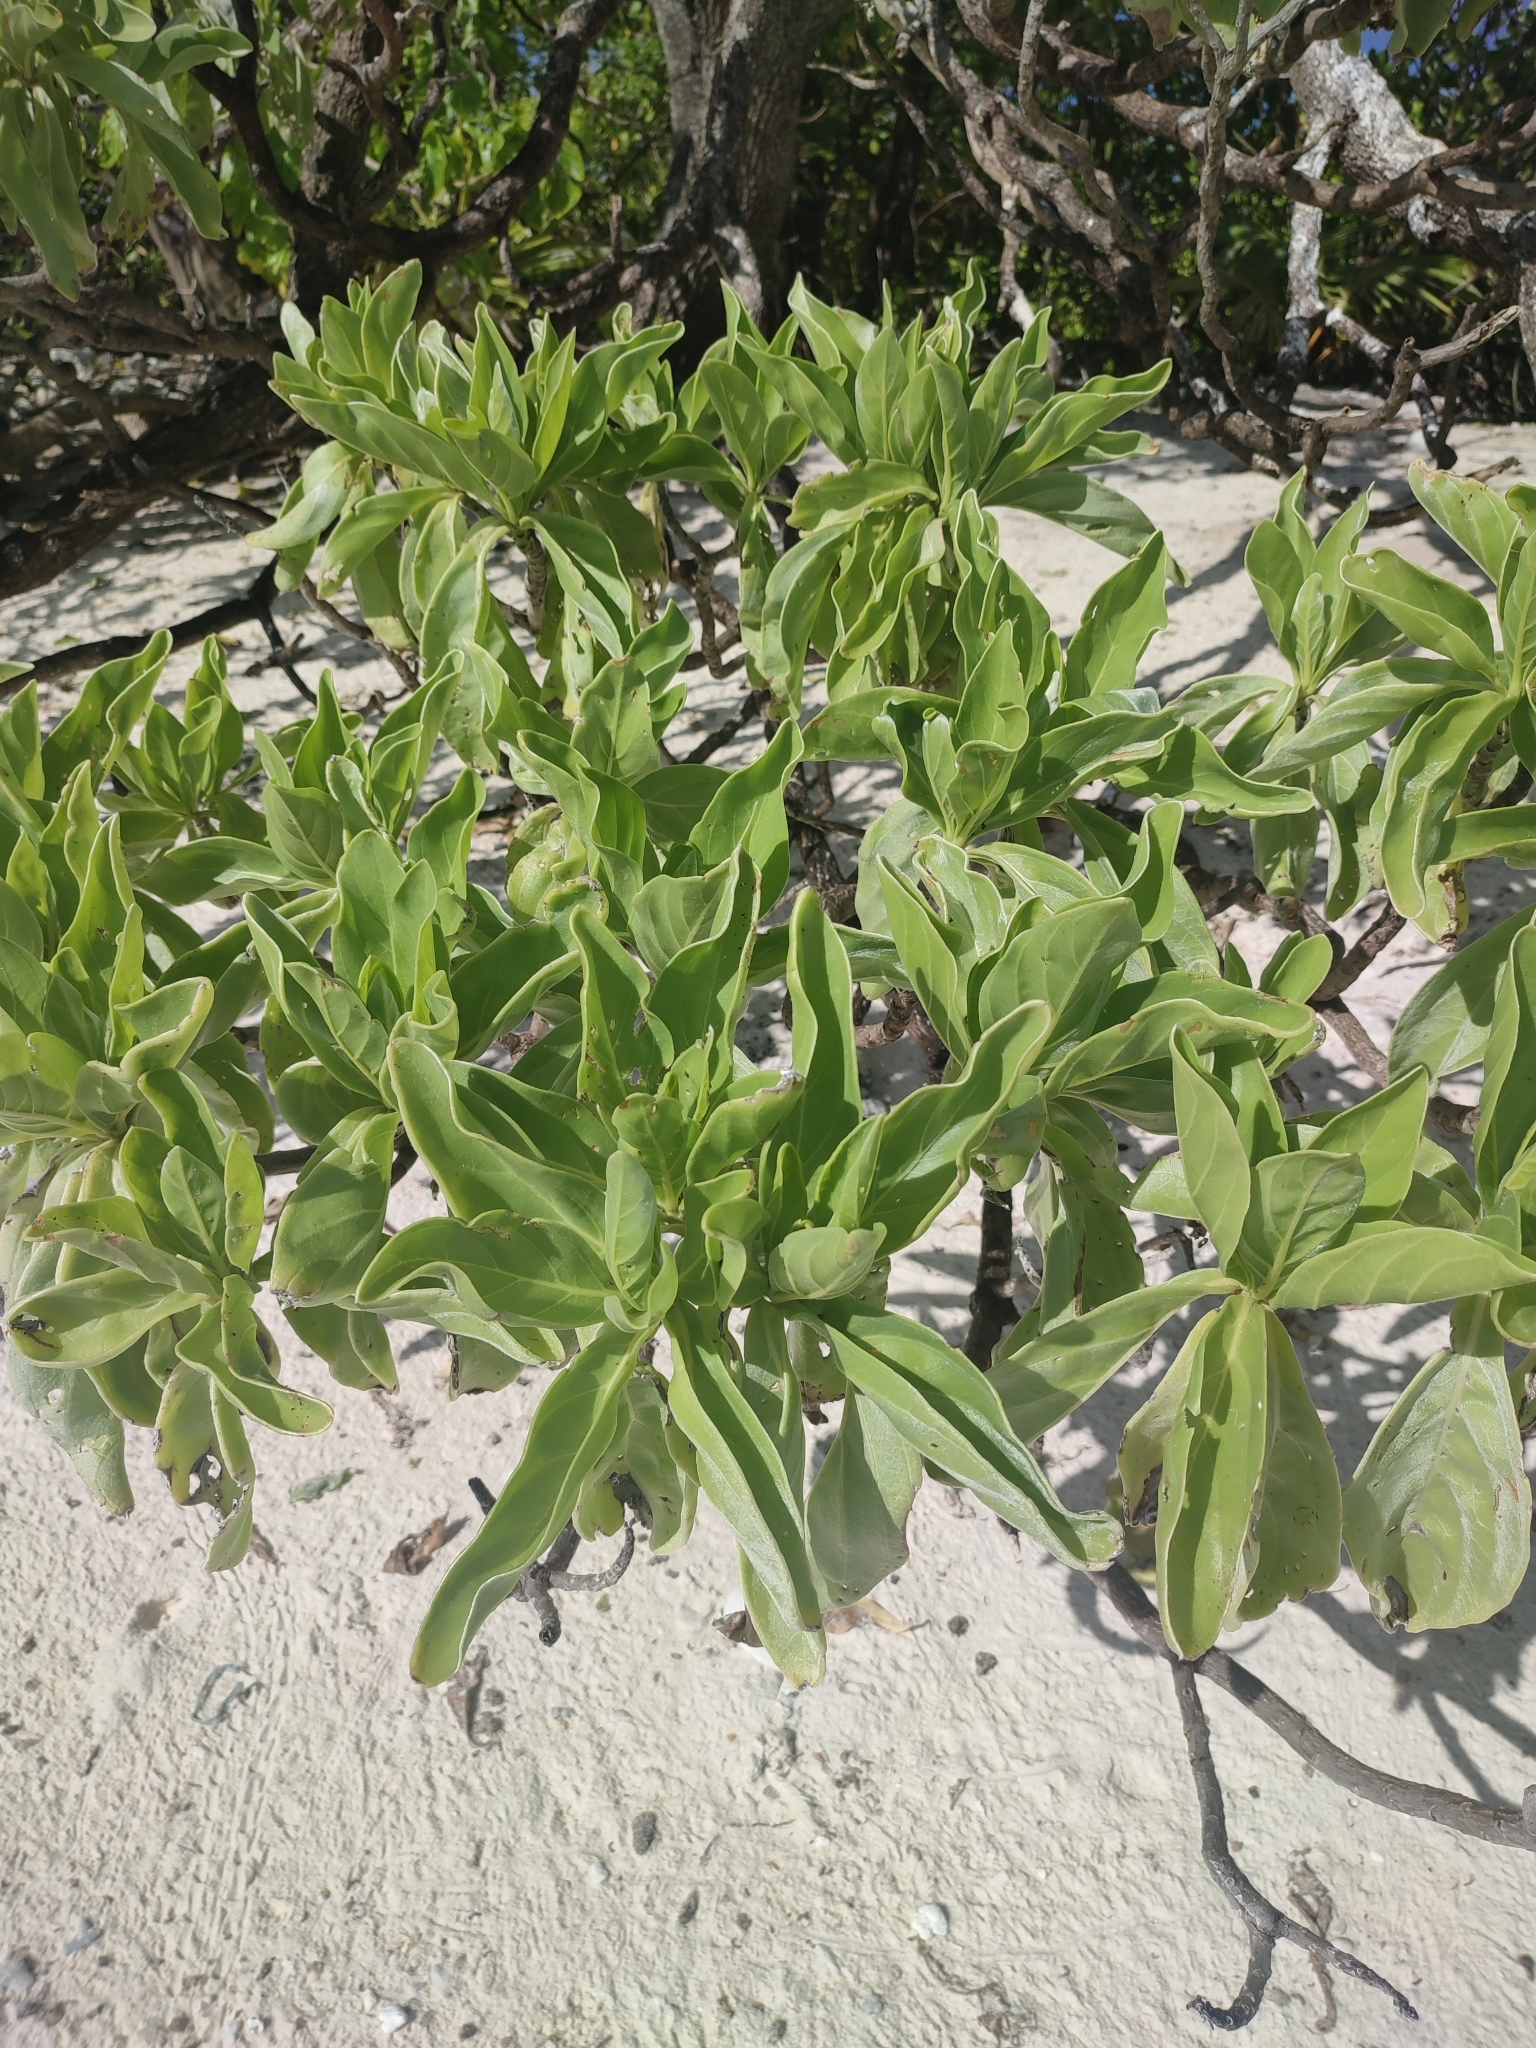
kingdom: Plantae
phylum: Tracheophyta
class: Magnoliopsida
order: Boraginales
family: Heliotropiaceae
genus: Heliotropium
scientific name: Heliotropium velutinum
